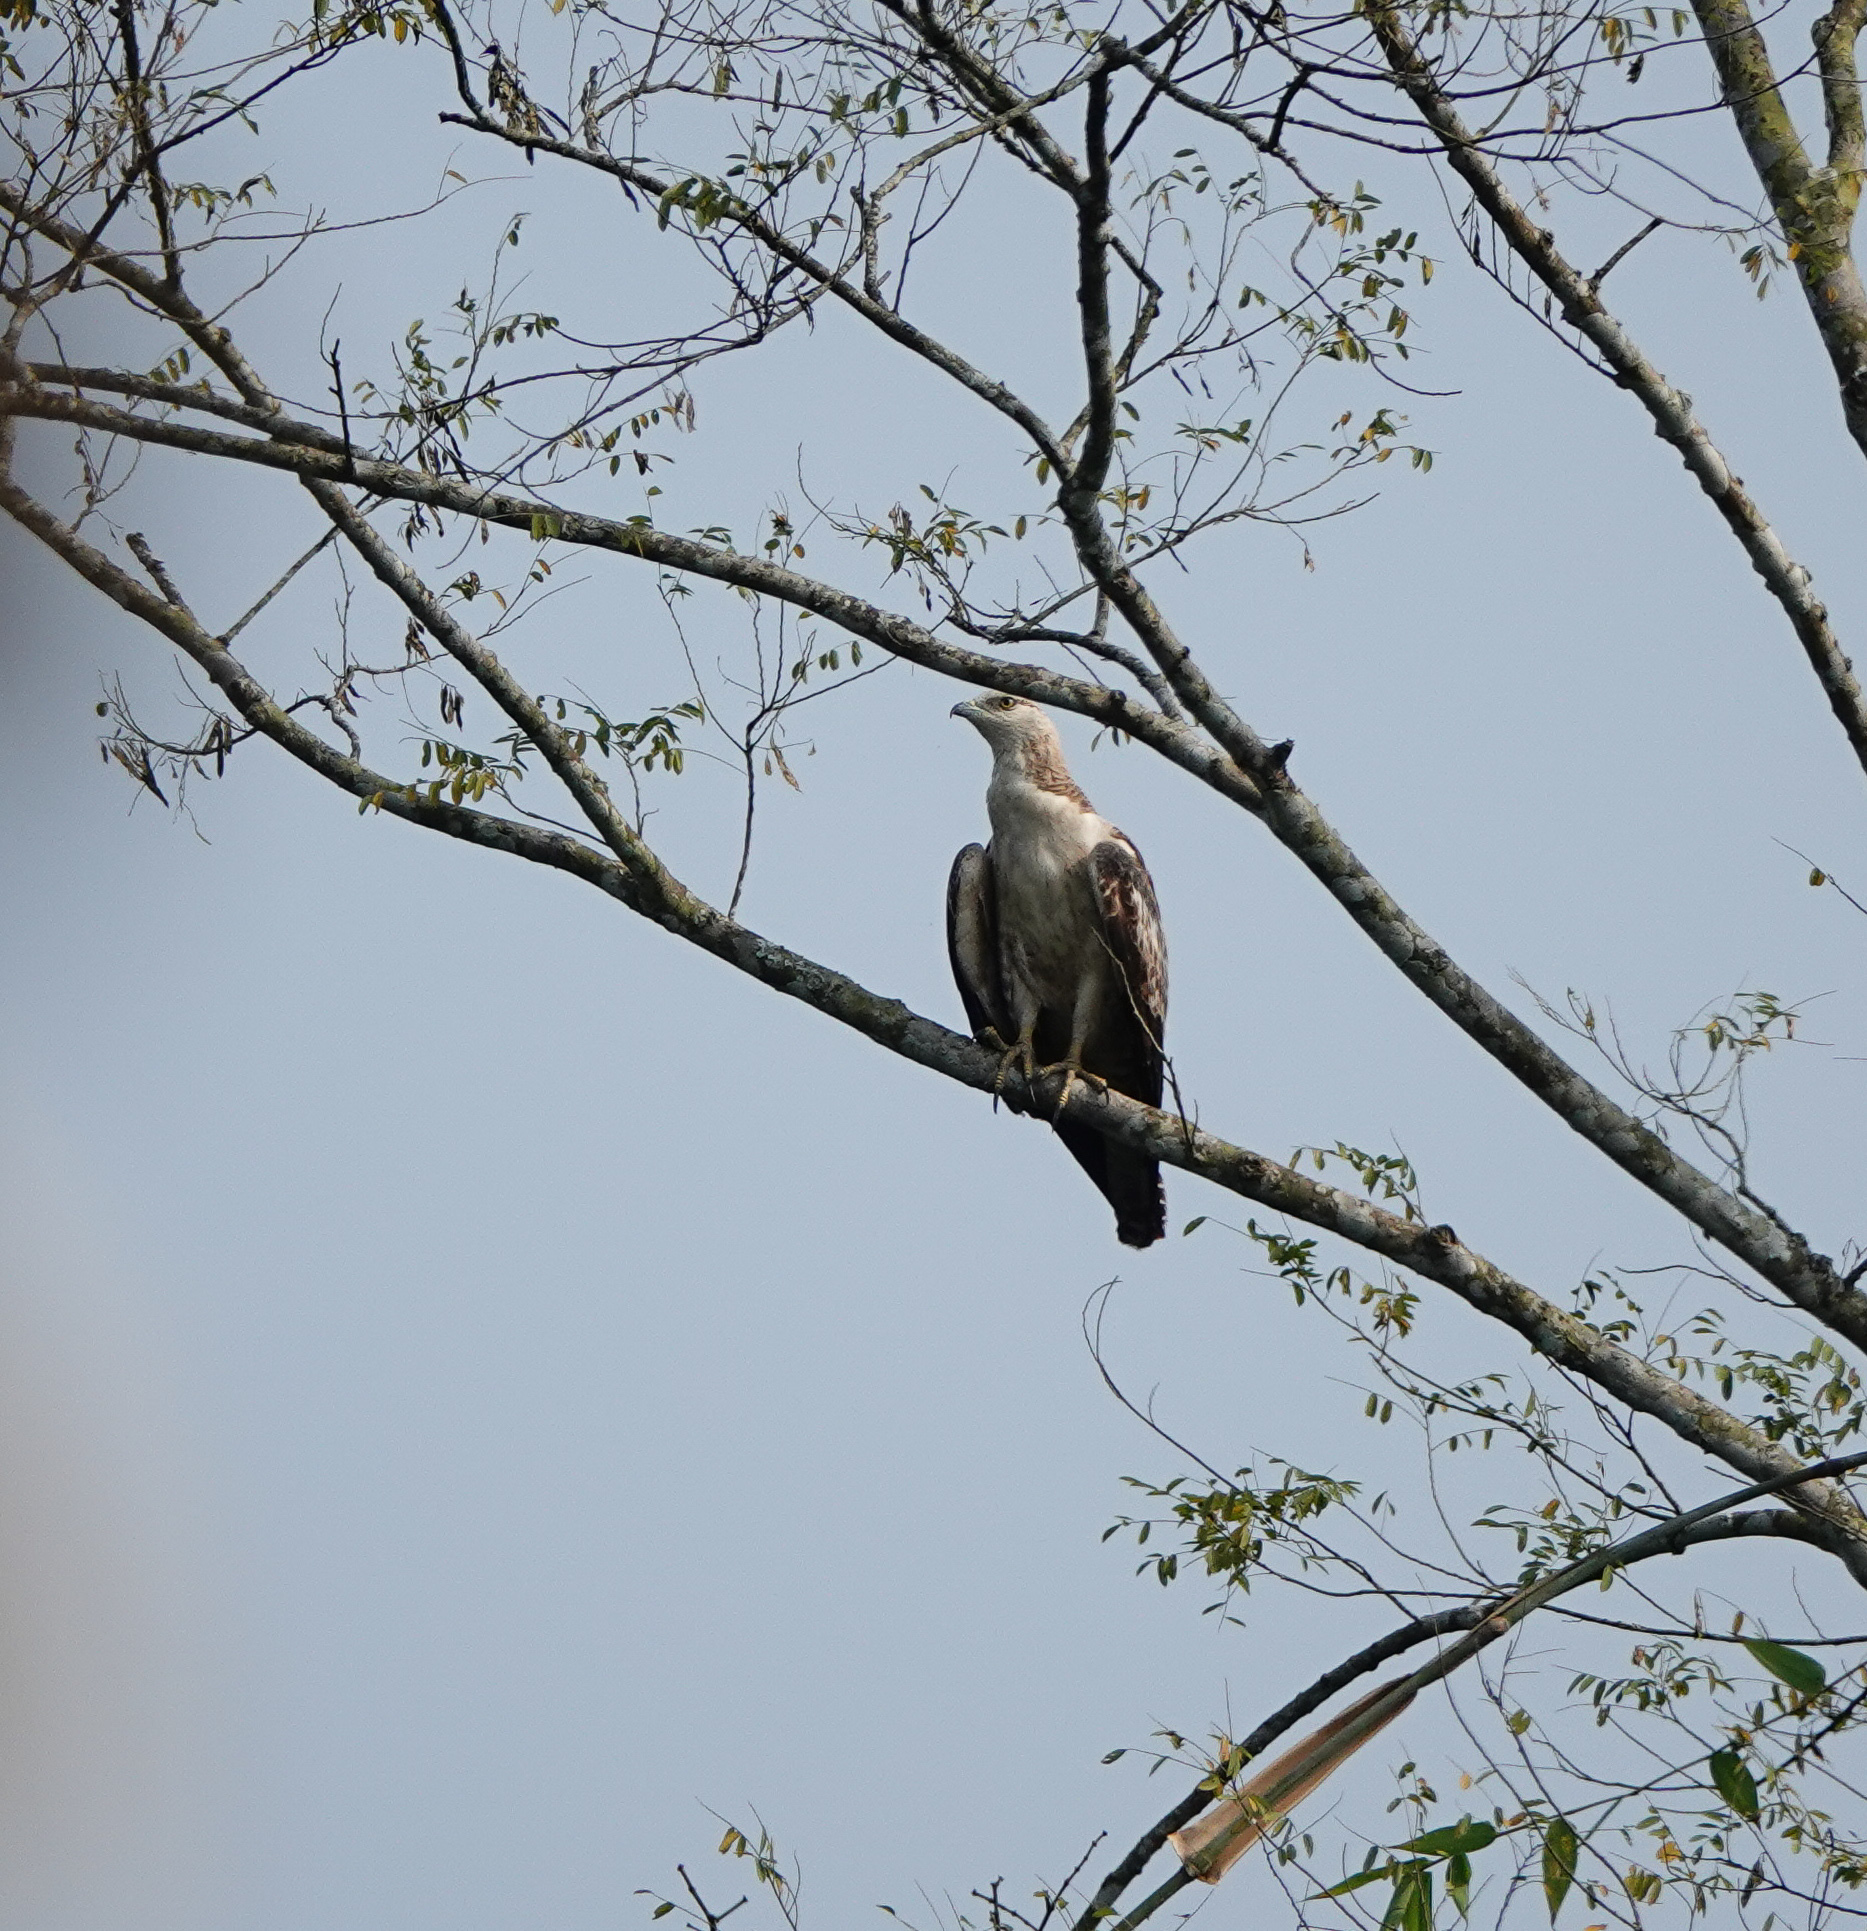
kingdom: Animalia
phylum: Chordata
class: Aves
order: Accipitriformes
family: Accipitridae
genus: Pernis
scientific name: Pernis ptilorhynchus
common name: Crested honey buzzard
